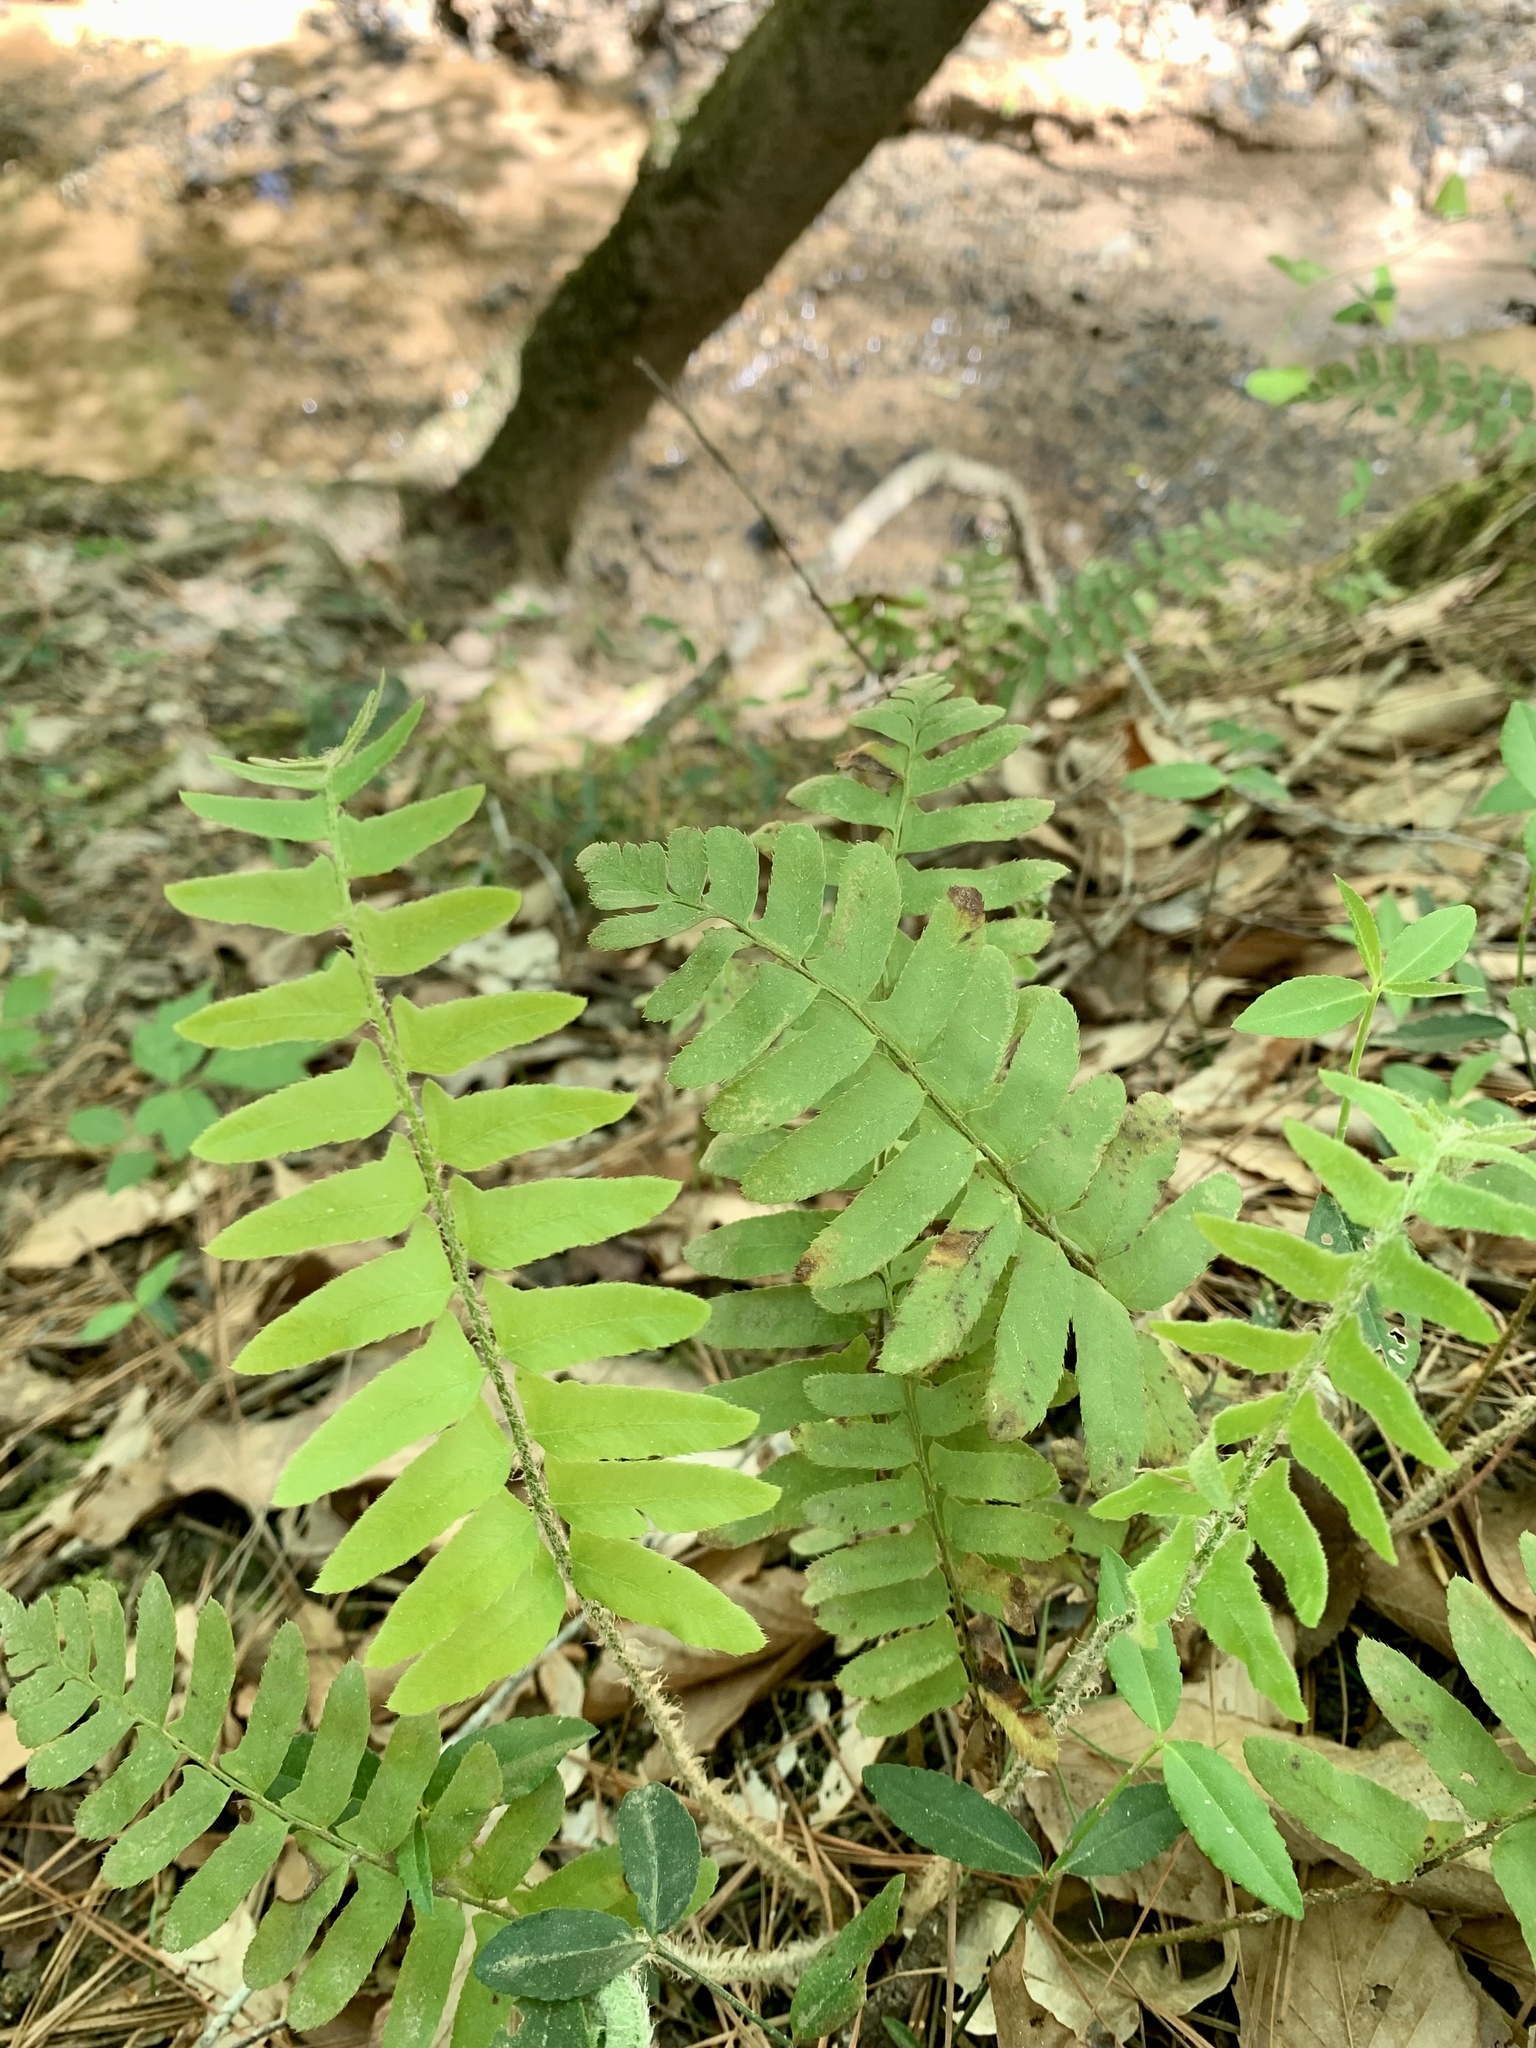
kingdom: Plantae
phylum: Tracheophyta
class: Polypodiopsida
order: Polypodiales
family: Dryopteridaceae
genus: Polystichum
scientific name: Polystichum acrostichoides
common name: Christmas fern
